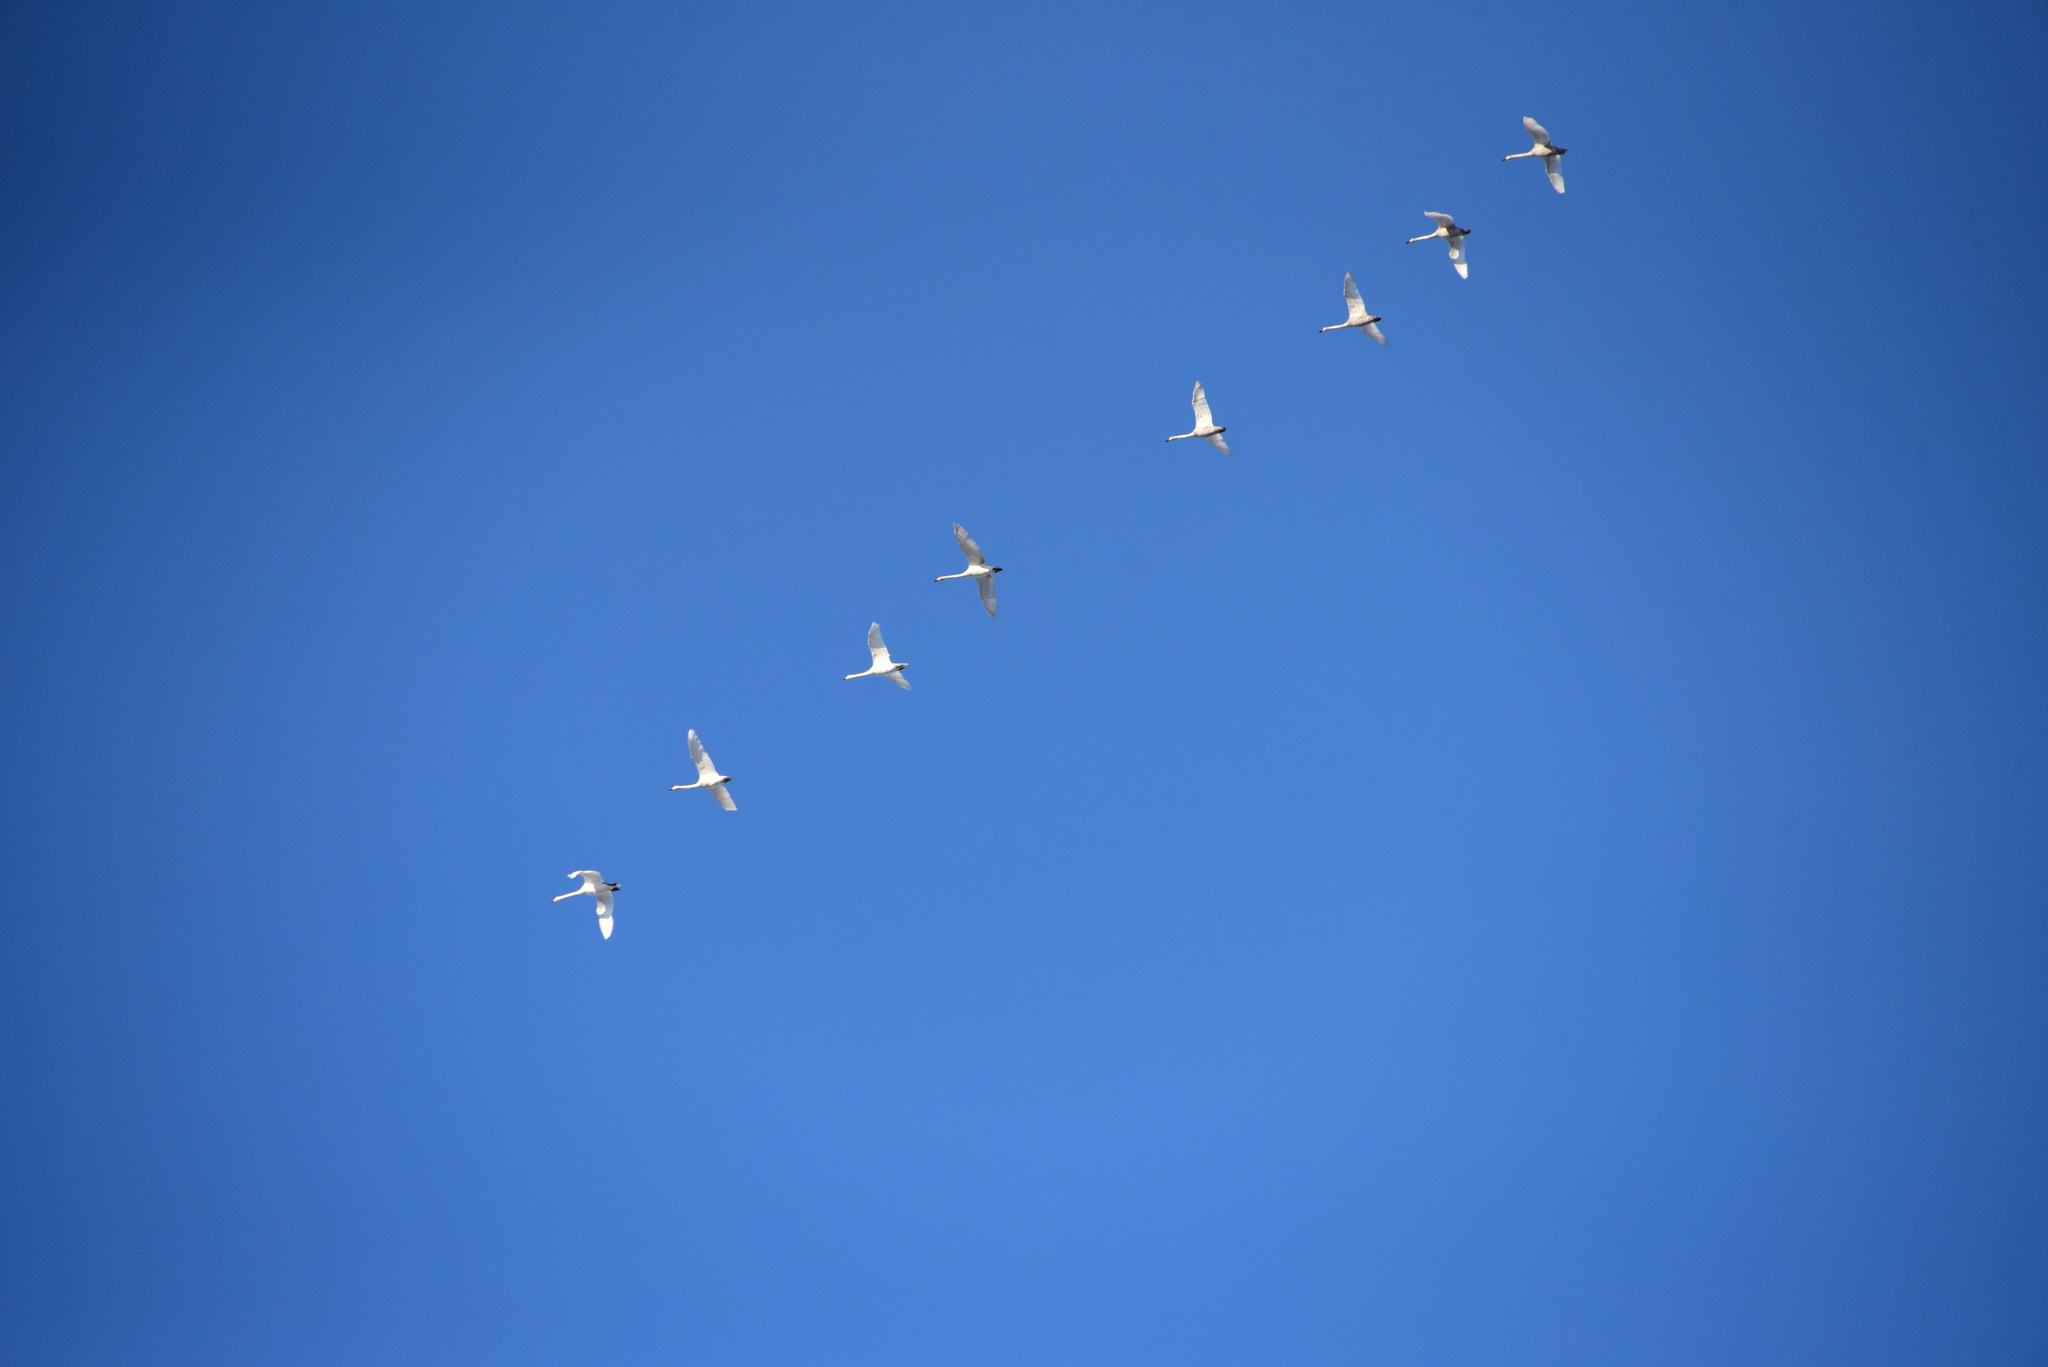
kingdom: Animalia
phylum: Chordata
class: Aves
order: Anseriformes
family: Anatidae
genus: Cygnus
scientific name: Cygnus cygnus
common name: Whooper swan
